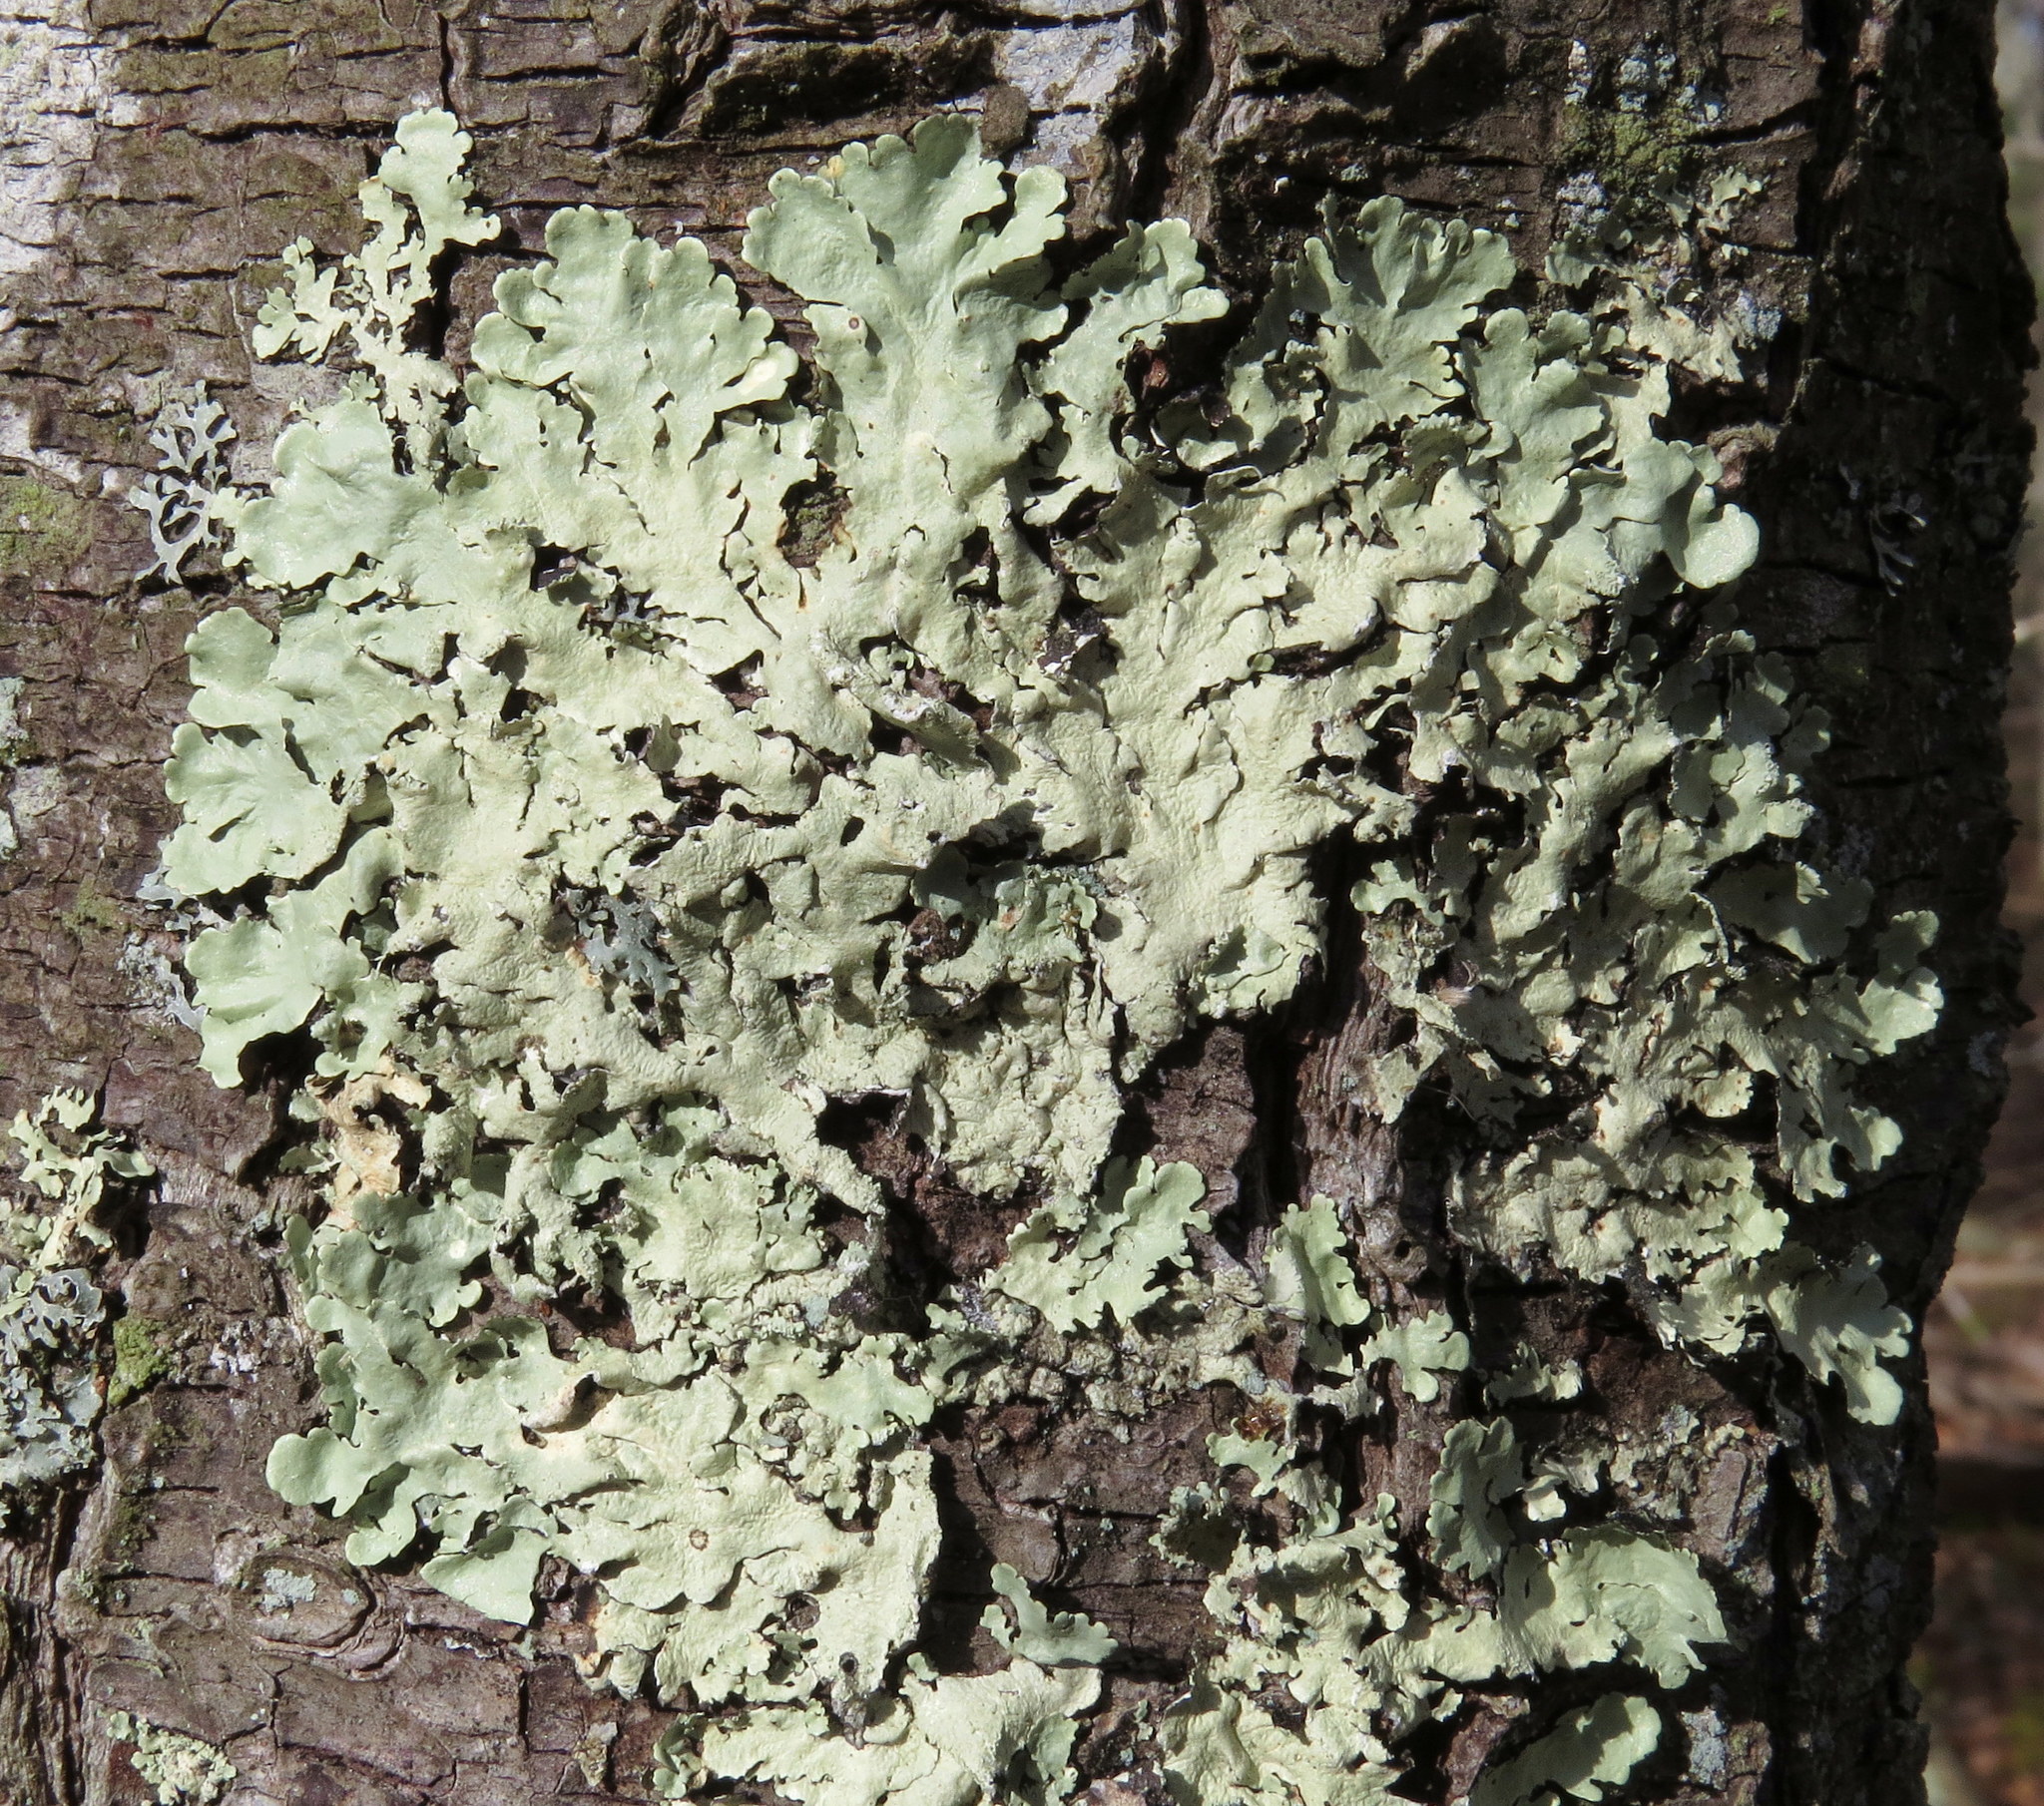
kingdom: Fungi
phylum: Ascomycota
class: Lecanoromycetes
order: Lecanorales
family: Parmeliaceae
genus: Flavoparmelia
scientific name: Flavoparmelia caperata
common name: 40-mile per hour lichen
